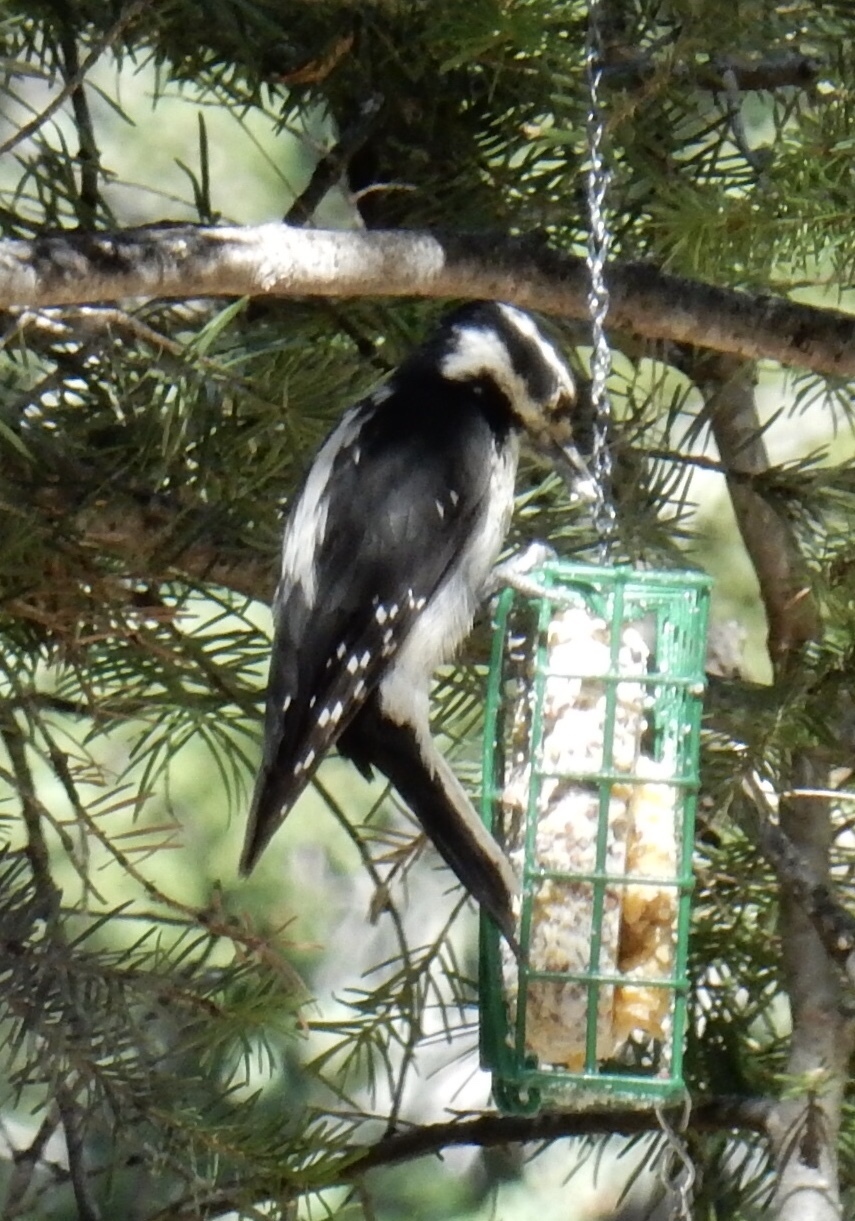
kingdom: Animalia
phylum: Chordata
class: Aves
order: Piciformes
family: Picidae
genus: Leuconotopicus
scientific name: Leuconotopicus villosus
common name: Hairy woodpecker
